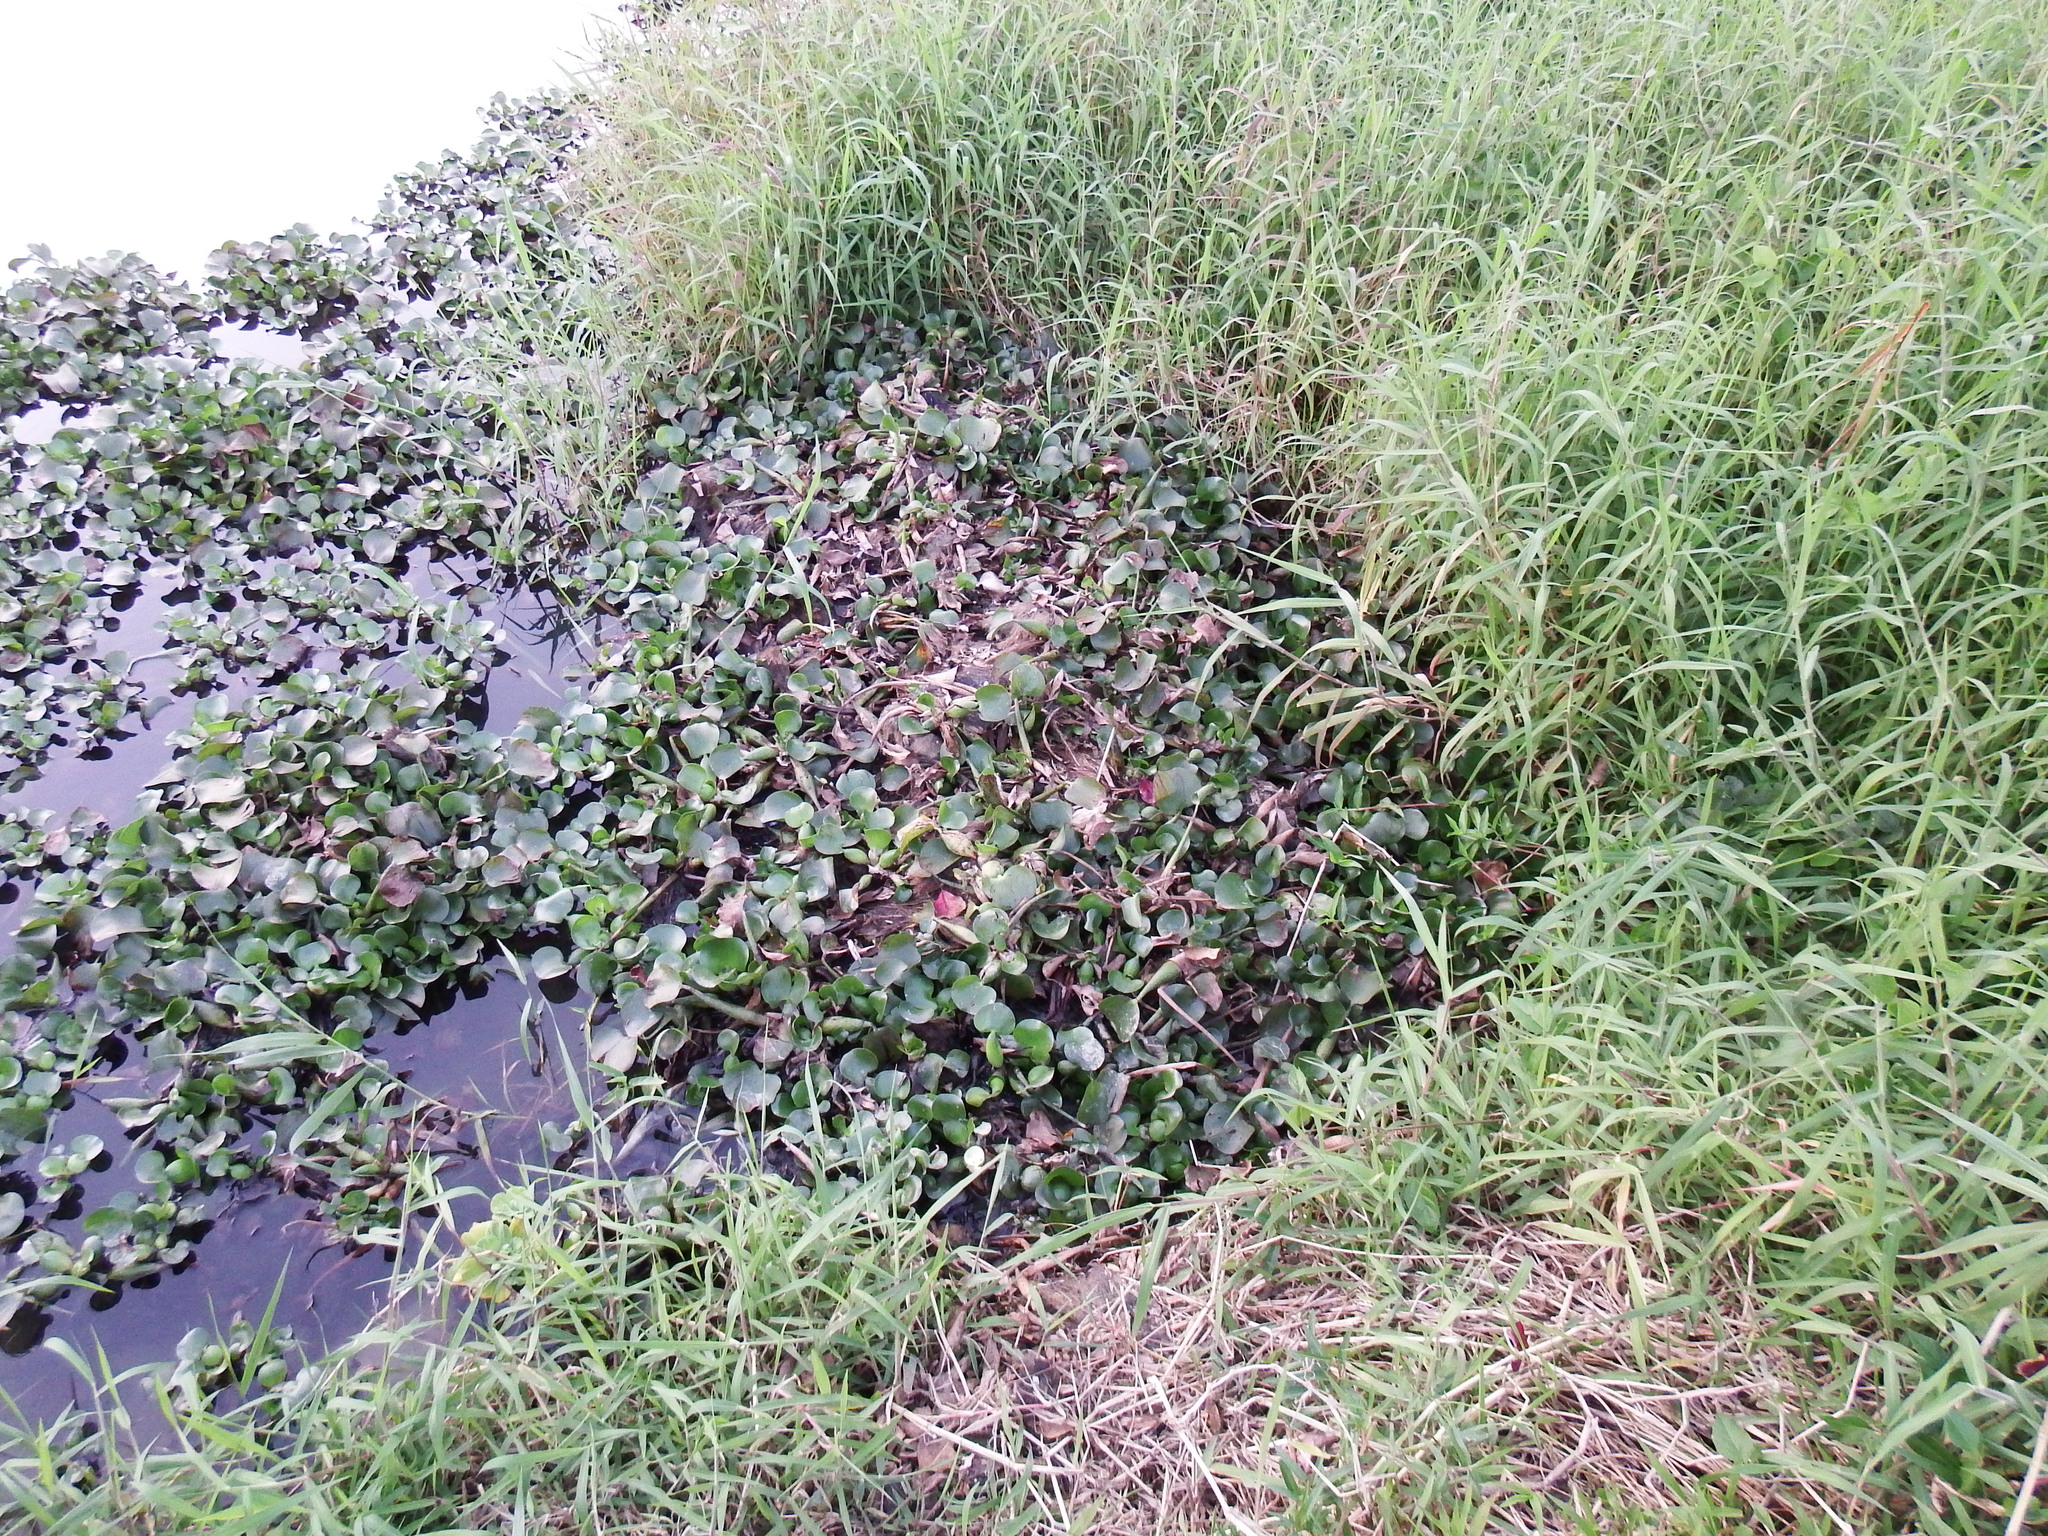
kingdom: Plantae
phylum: Tracheophyta
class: Liliopsida
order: Commelinales
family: Pontederiaceae
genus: Pontederia
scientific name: Pontederia crassipes
